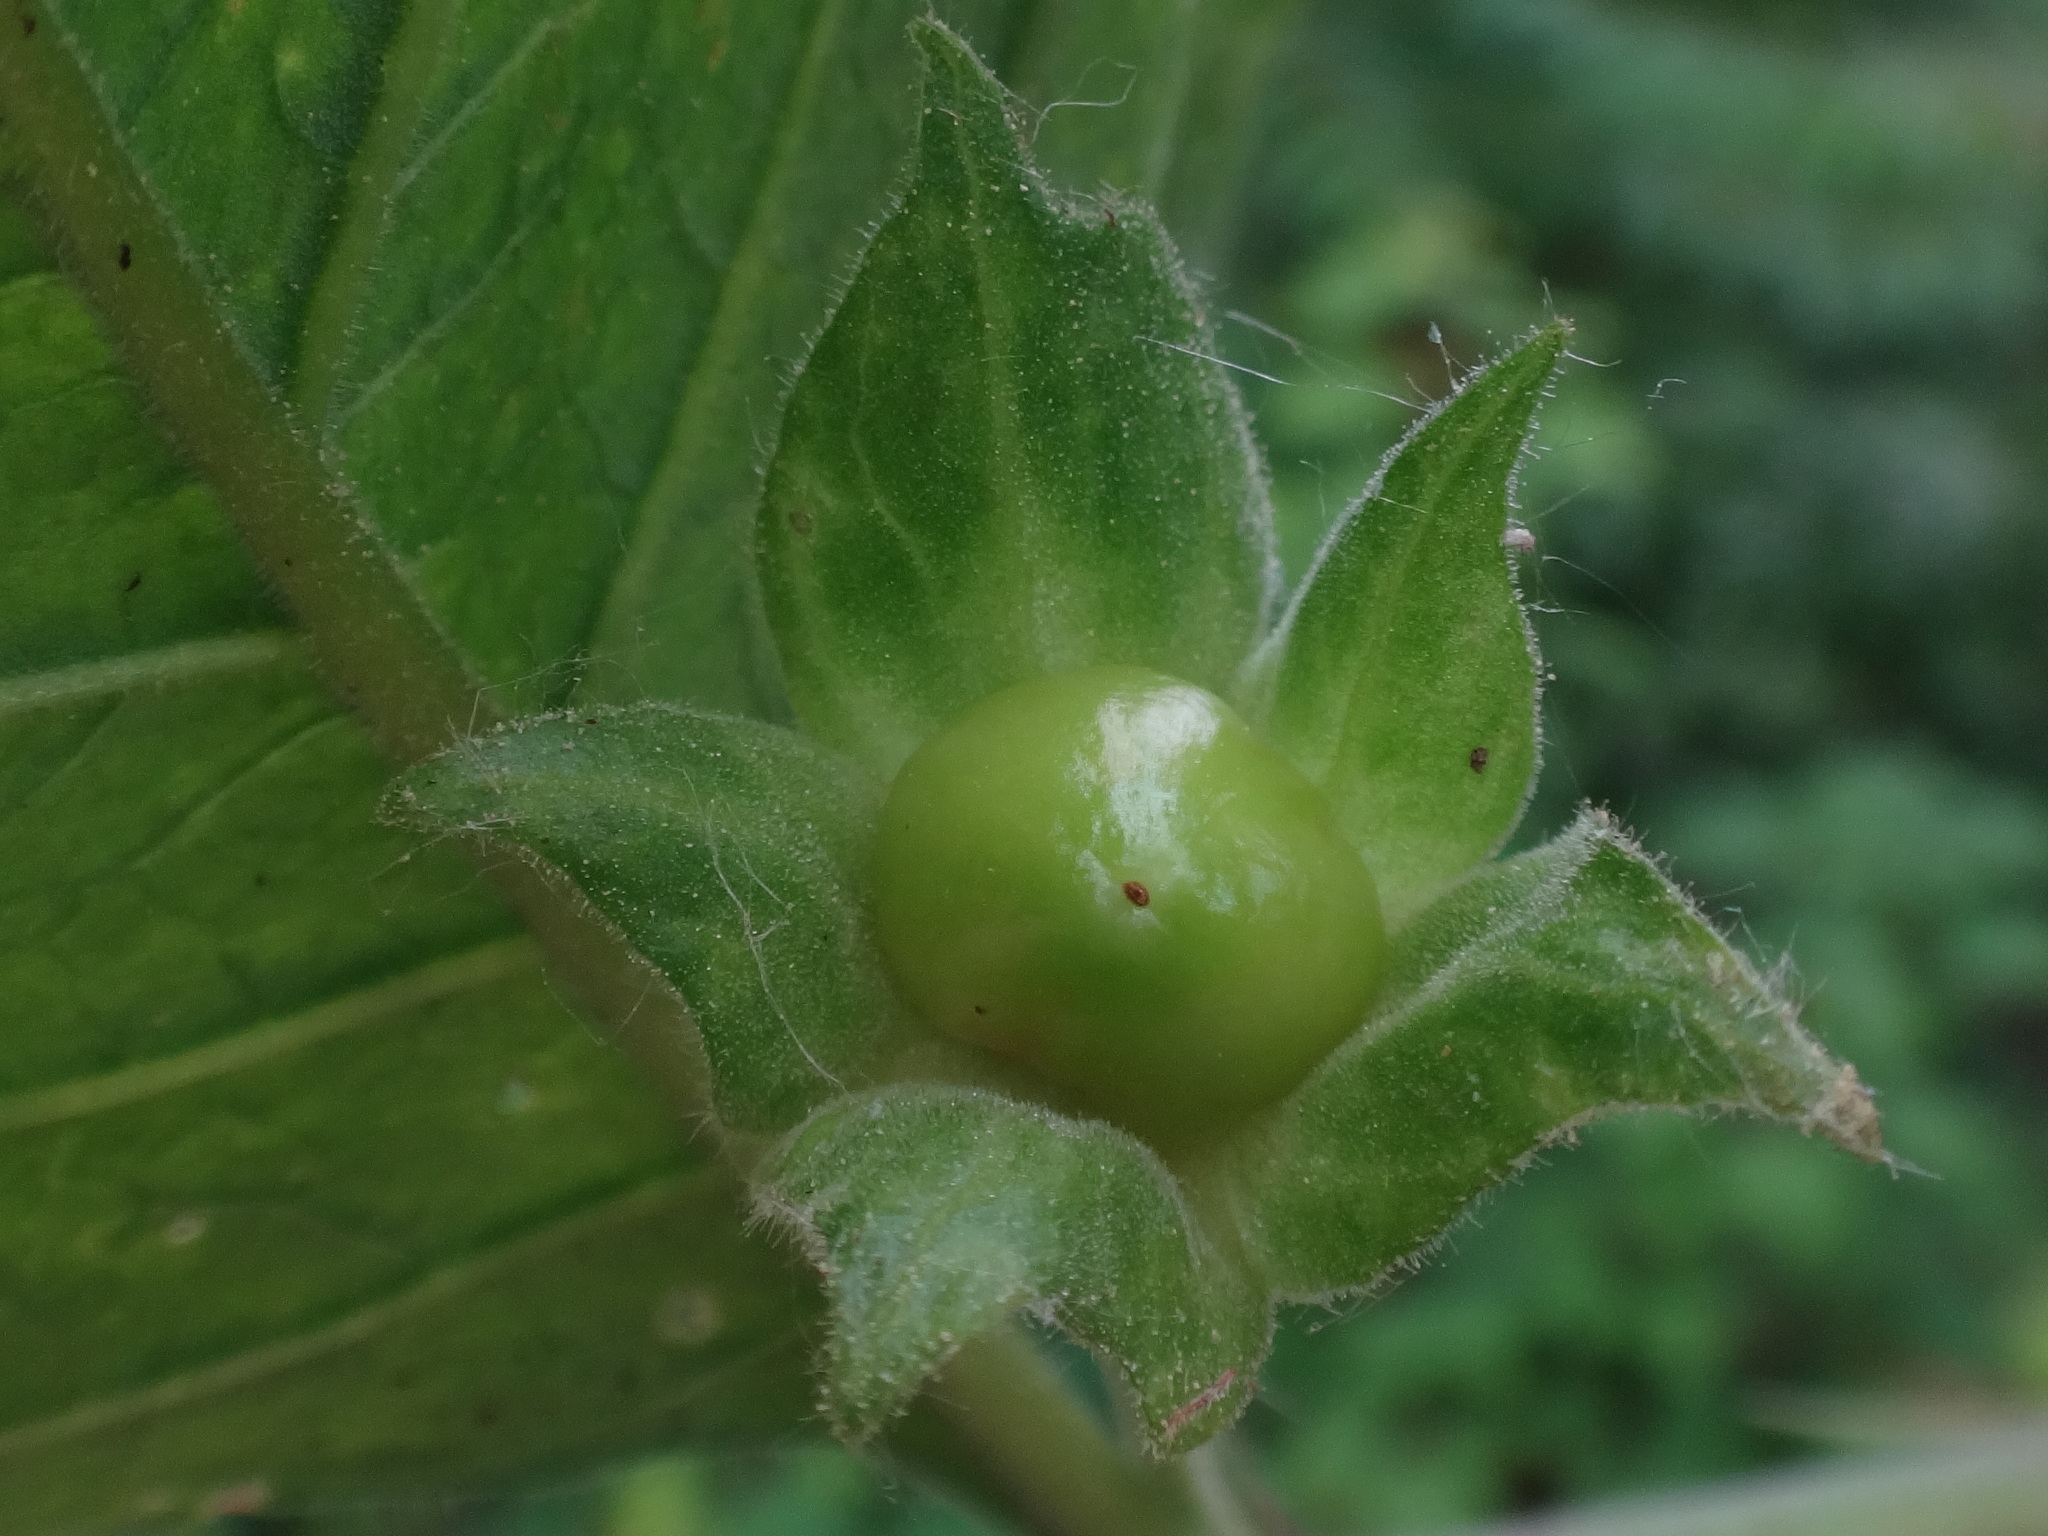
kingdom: Plantae
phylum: Tracheophyta
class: Magnoliopsida
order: Solanales
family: Solanaceae
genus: Atropa
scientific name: Atropa belladonna
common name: Deadly nightshade
